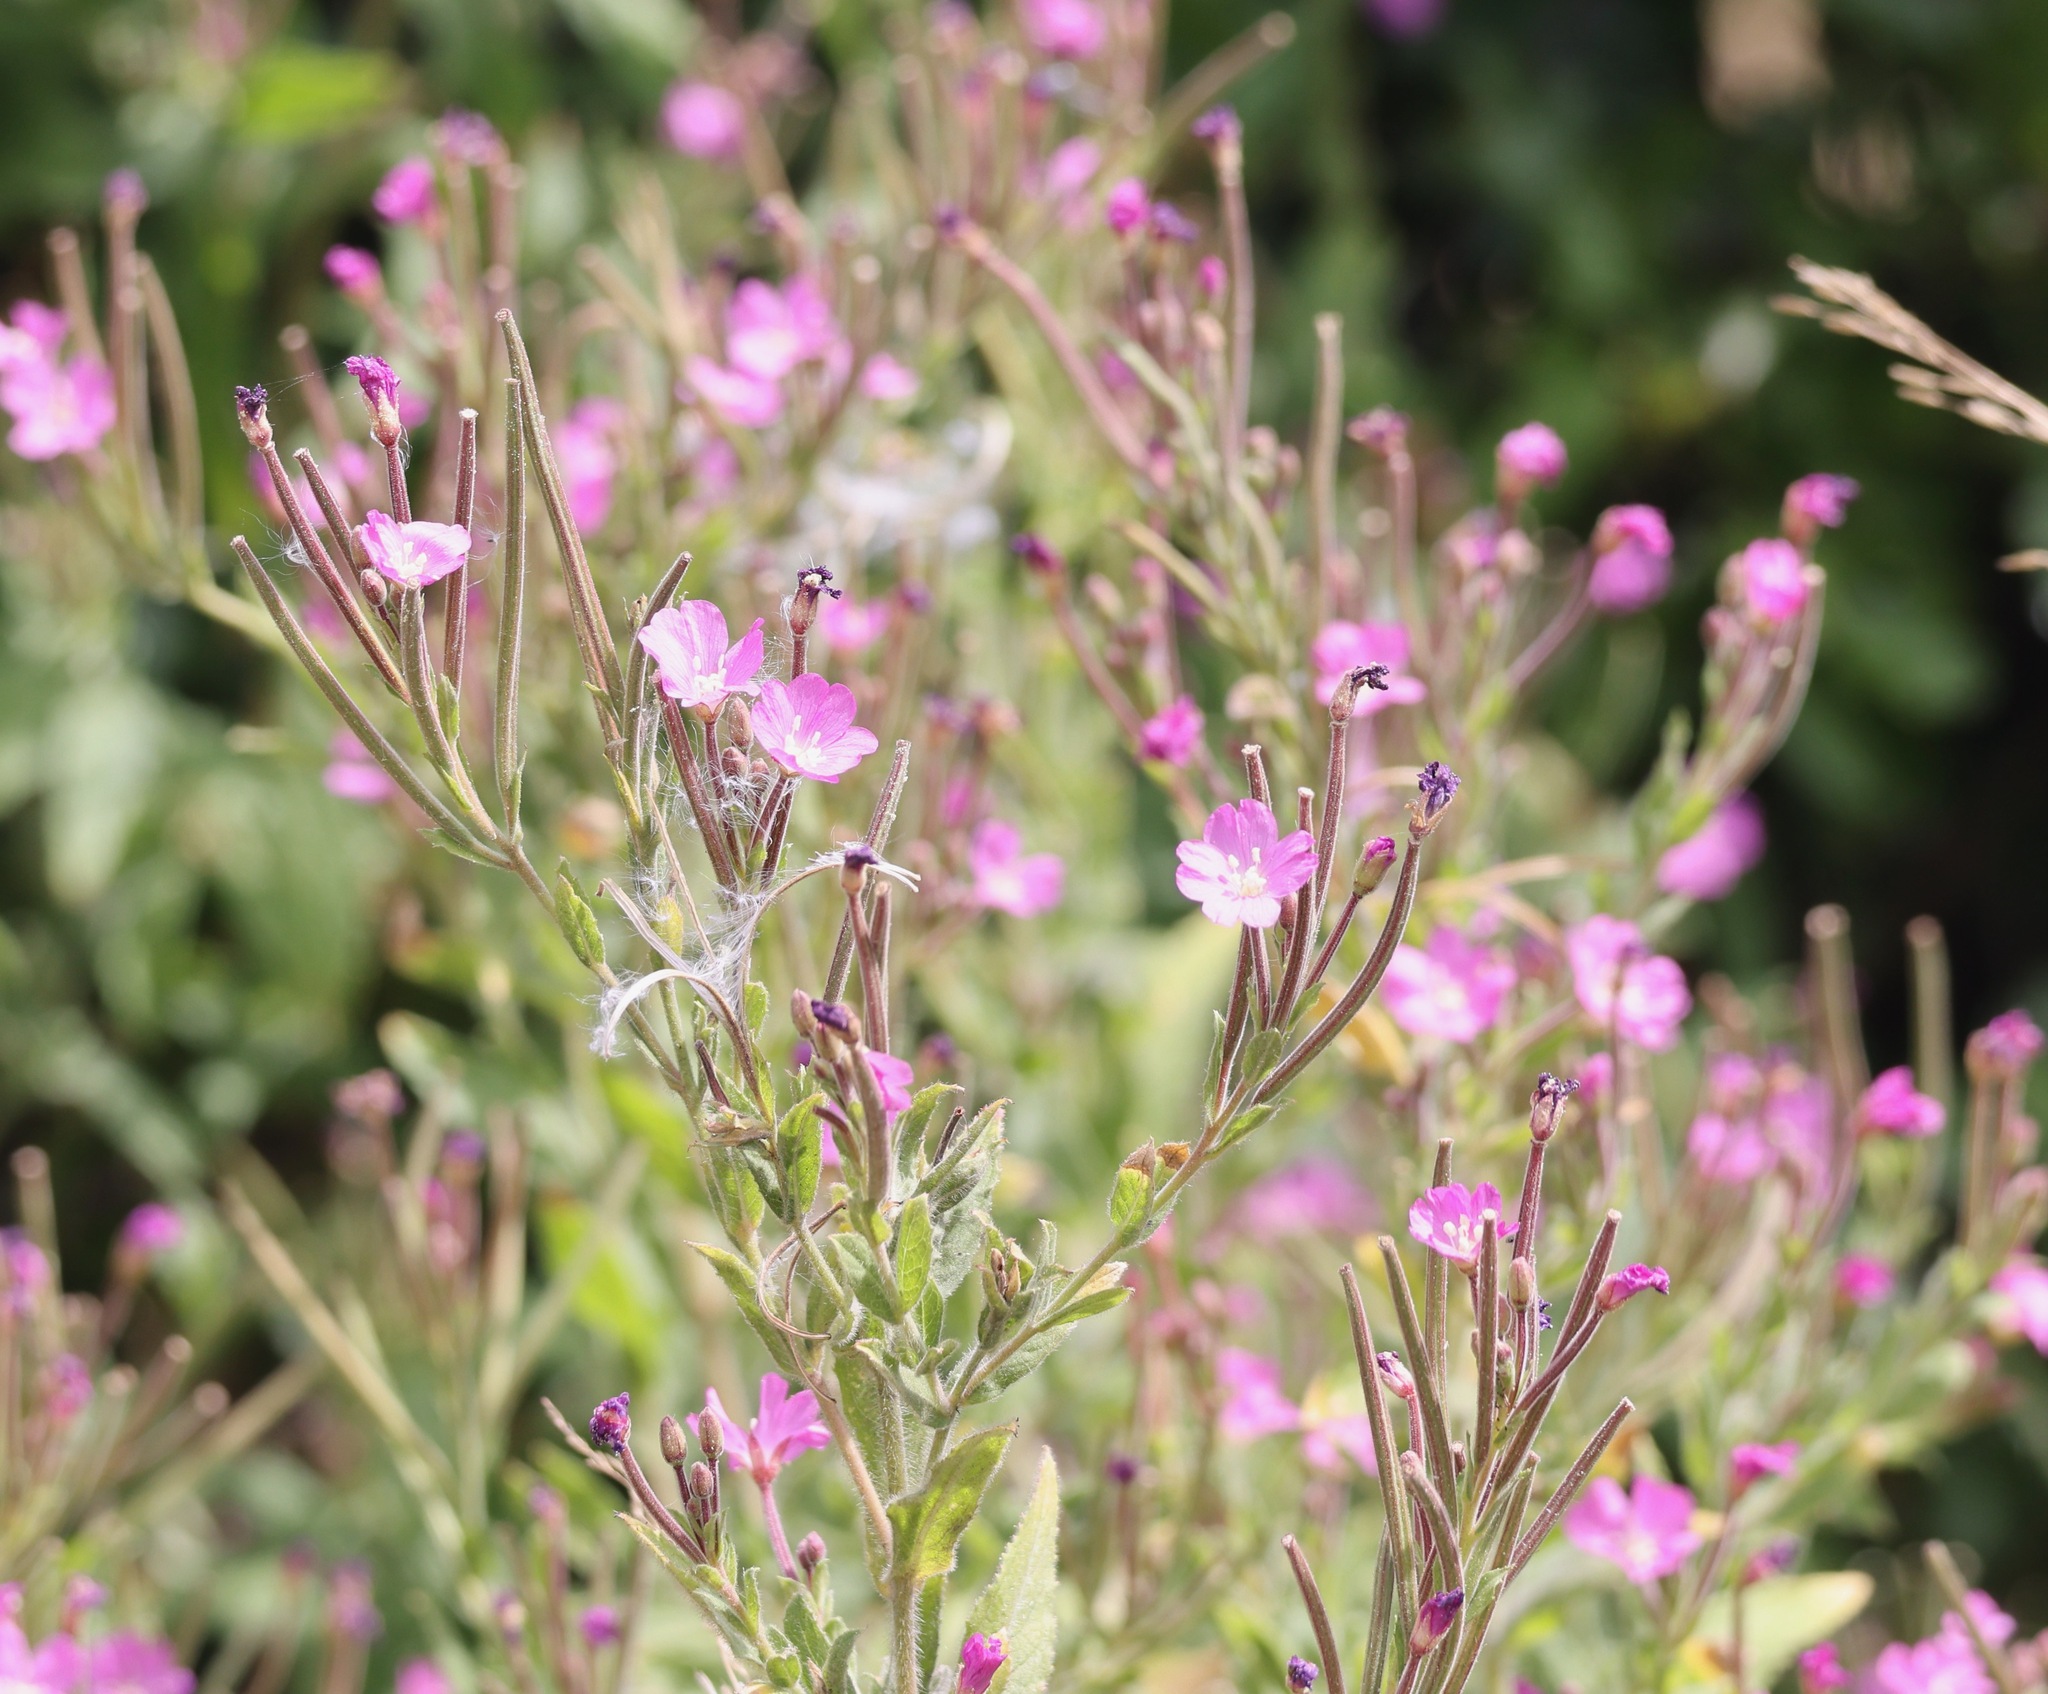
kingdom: Plantae
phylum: Tracheophyta
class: Magnoliopsida
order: Myrtales
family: Onagraceae
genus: Epilobium
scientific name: Epilobium hirsutum
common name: Great willowherb
